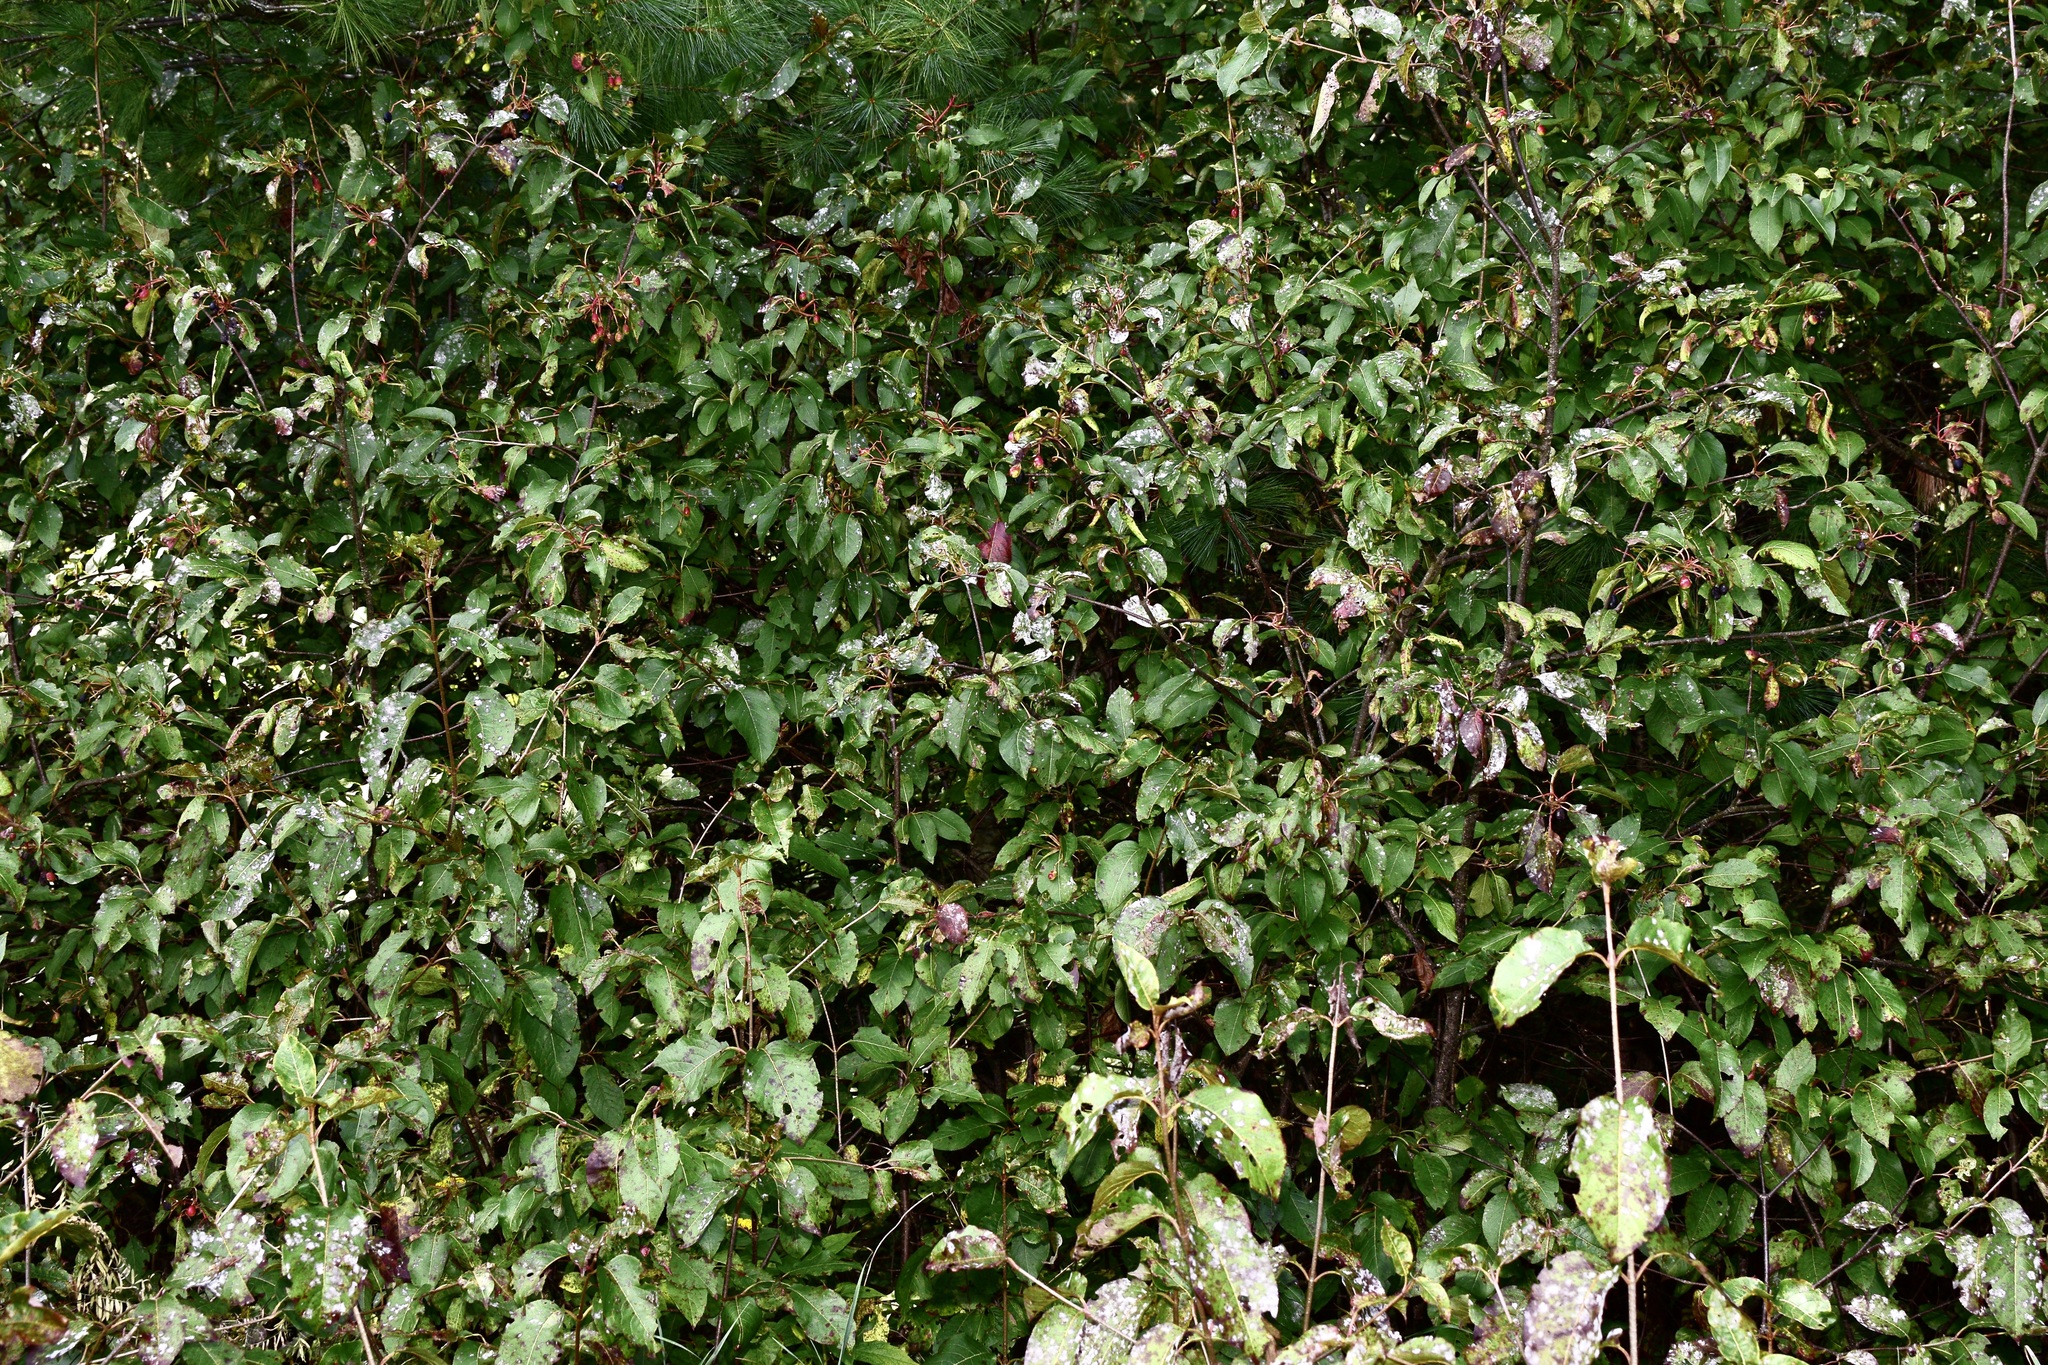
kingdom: Plantae
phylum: Tracheophyta
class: Magnoliopsida
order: Dipsacales
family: Viburnaceae
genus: Viburnum
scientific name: Viburnum lentago
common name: Black haw
